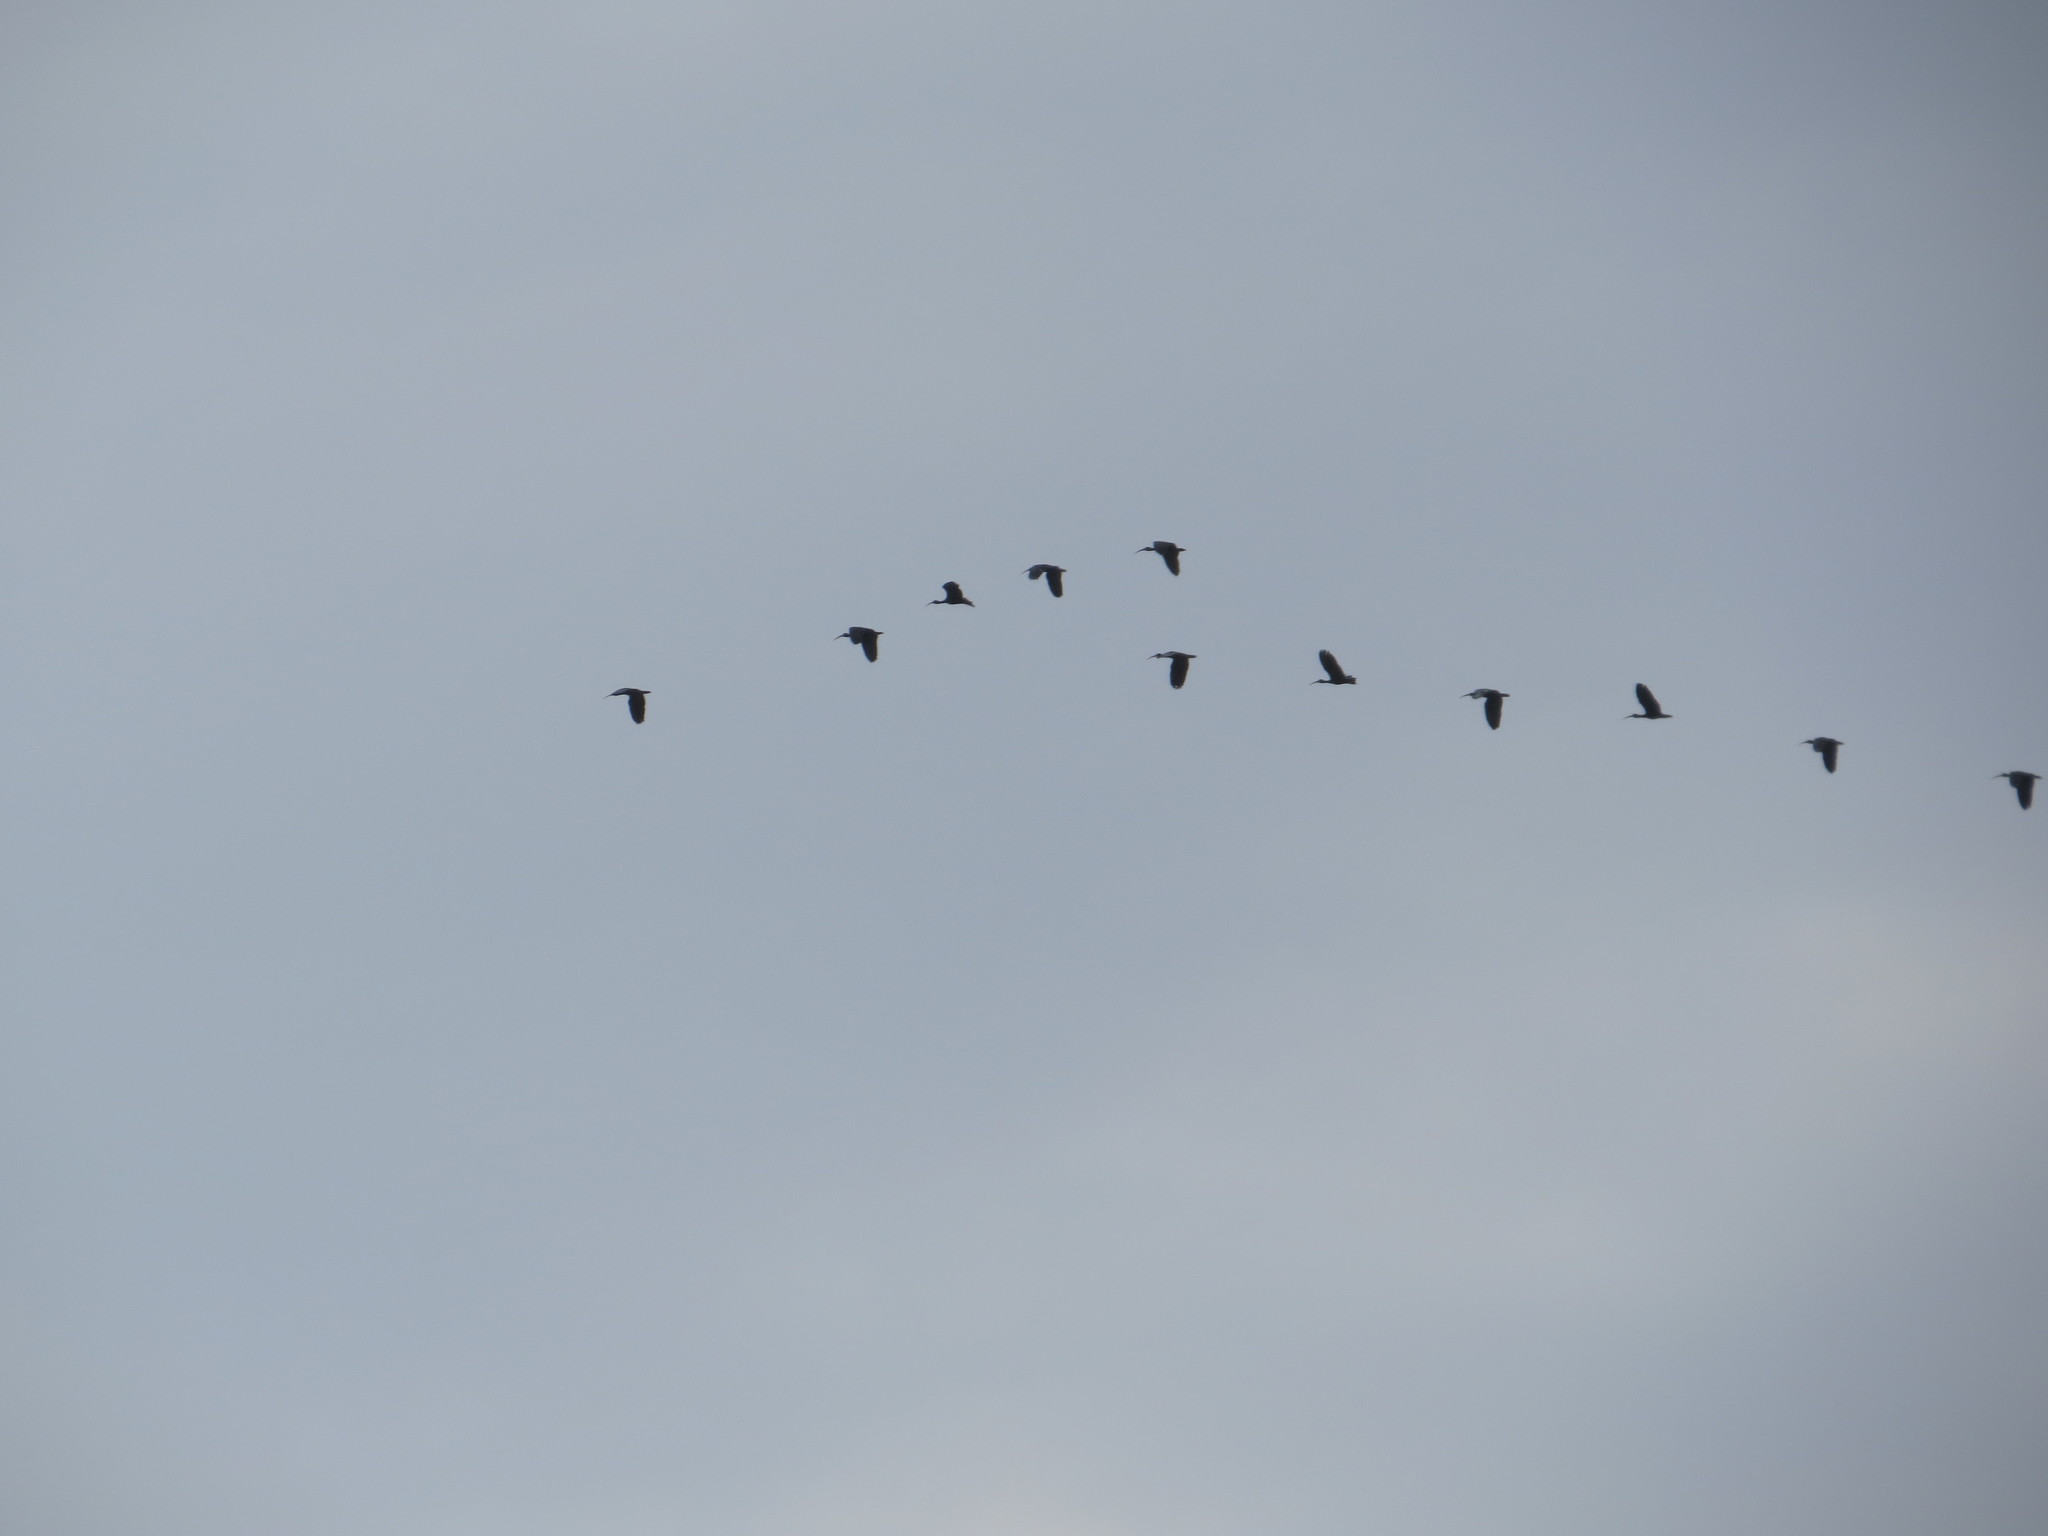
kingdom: Animalia
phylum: Chordata
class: Aves
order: Pelecaniformes
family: Threskiornithidae
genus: Phimosus
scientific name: Phimosus infuscatus
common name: Bare-faced ibis
